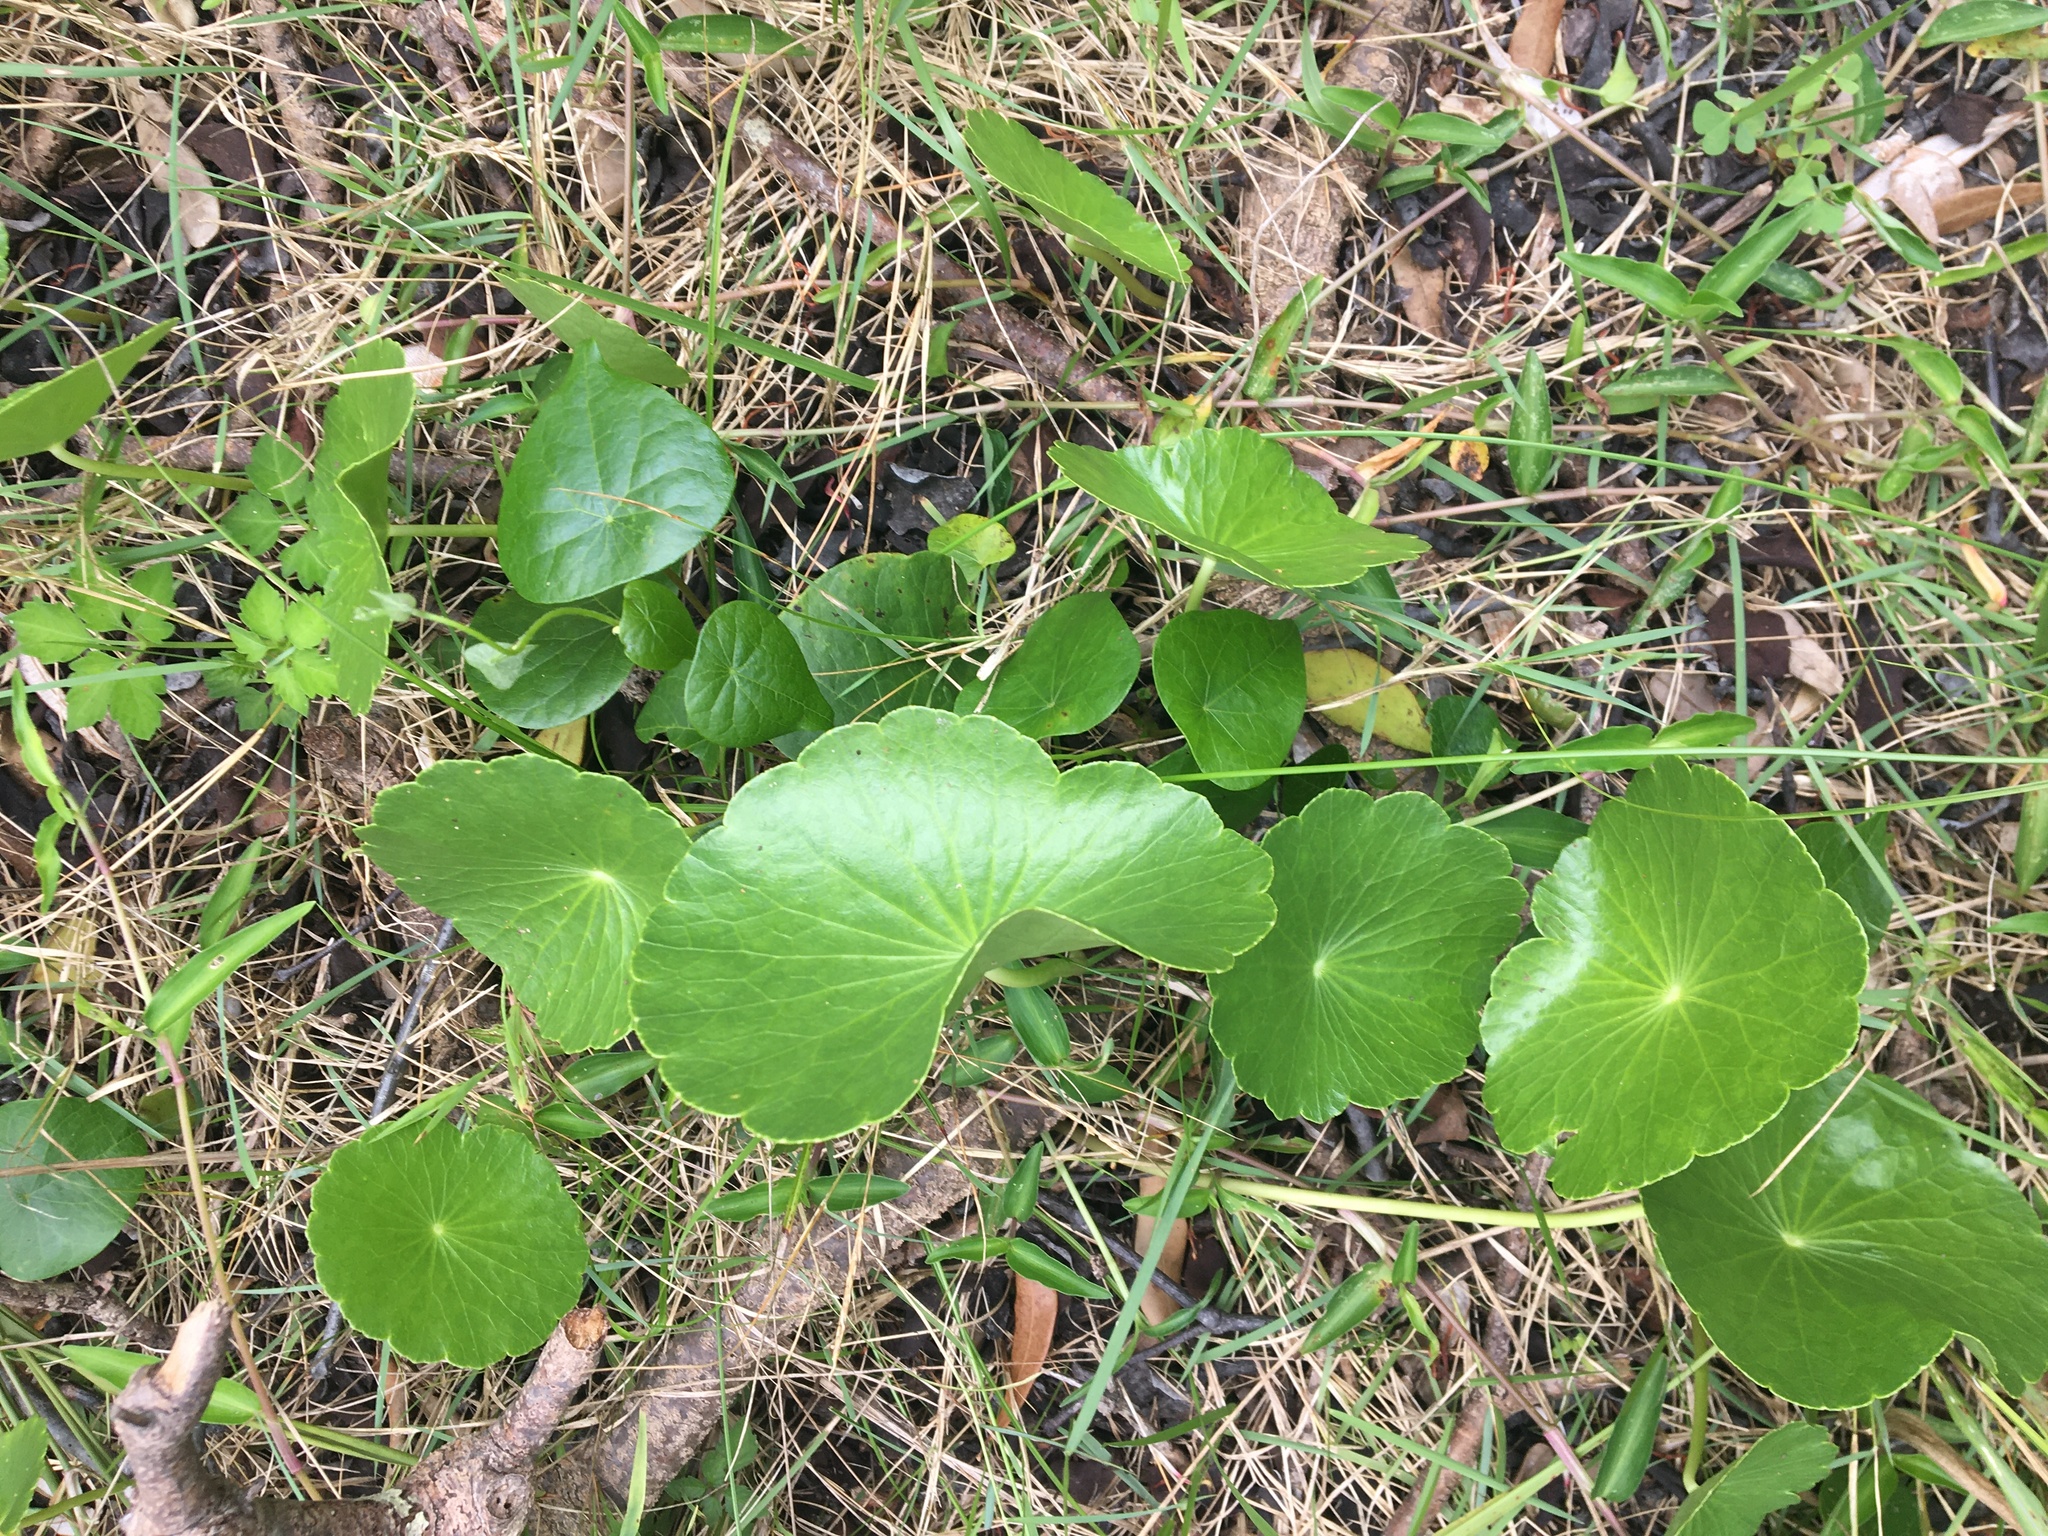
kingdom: Plantae
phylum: Tracheophyta
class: Magnoliopsida
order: Apiales
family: Araliaceae
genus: Hydrocotyle
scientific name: Hydrocotyle bonariensis
